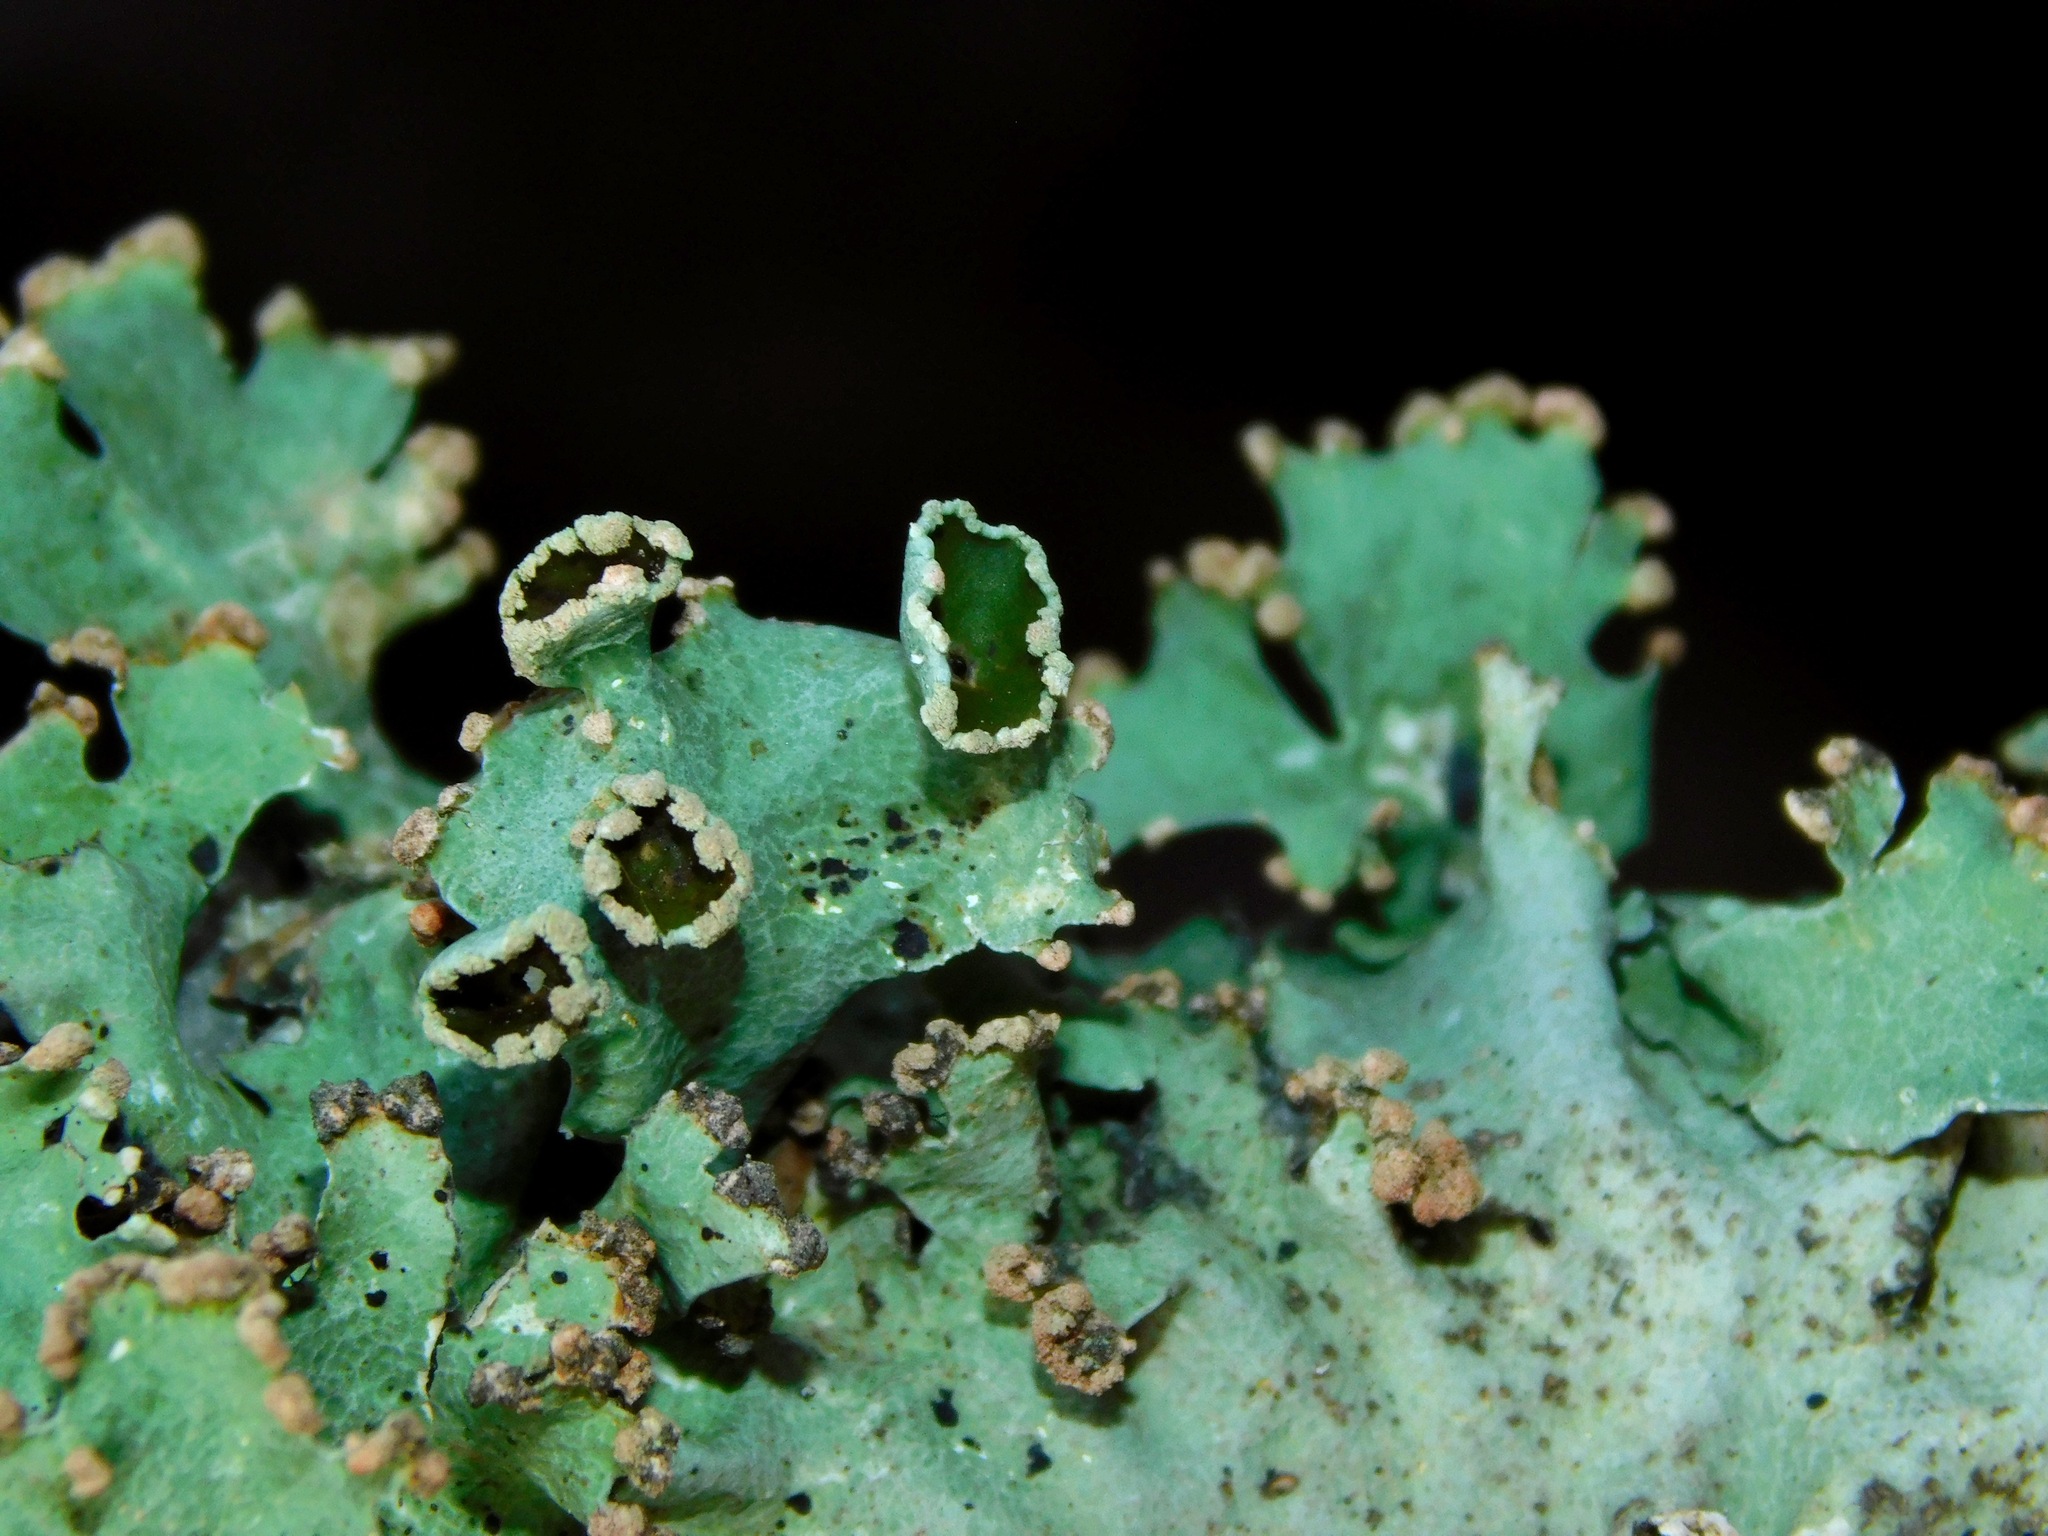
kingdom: Fungi
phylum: Ascomycota
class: Lecanoromycetes
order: Lecanorales
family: Parmeliaceae
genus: Parmotrema
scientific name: Parmotrema simulans
